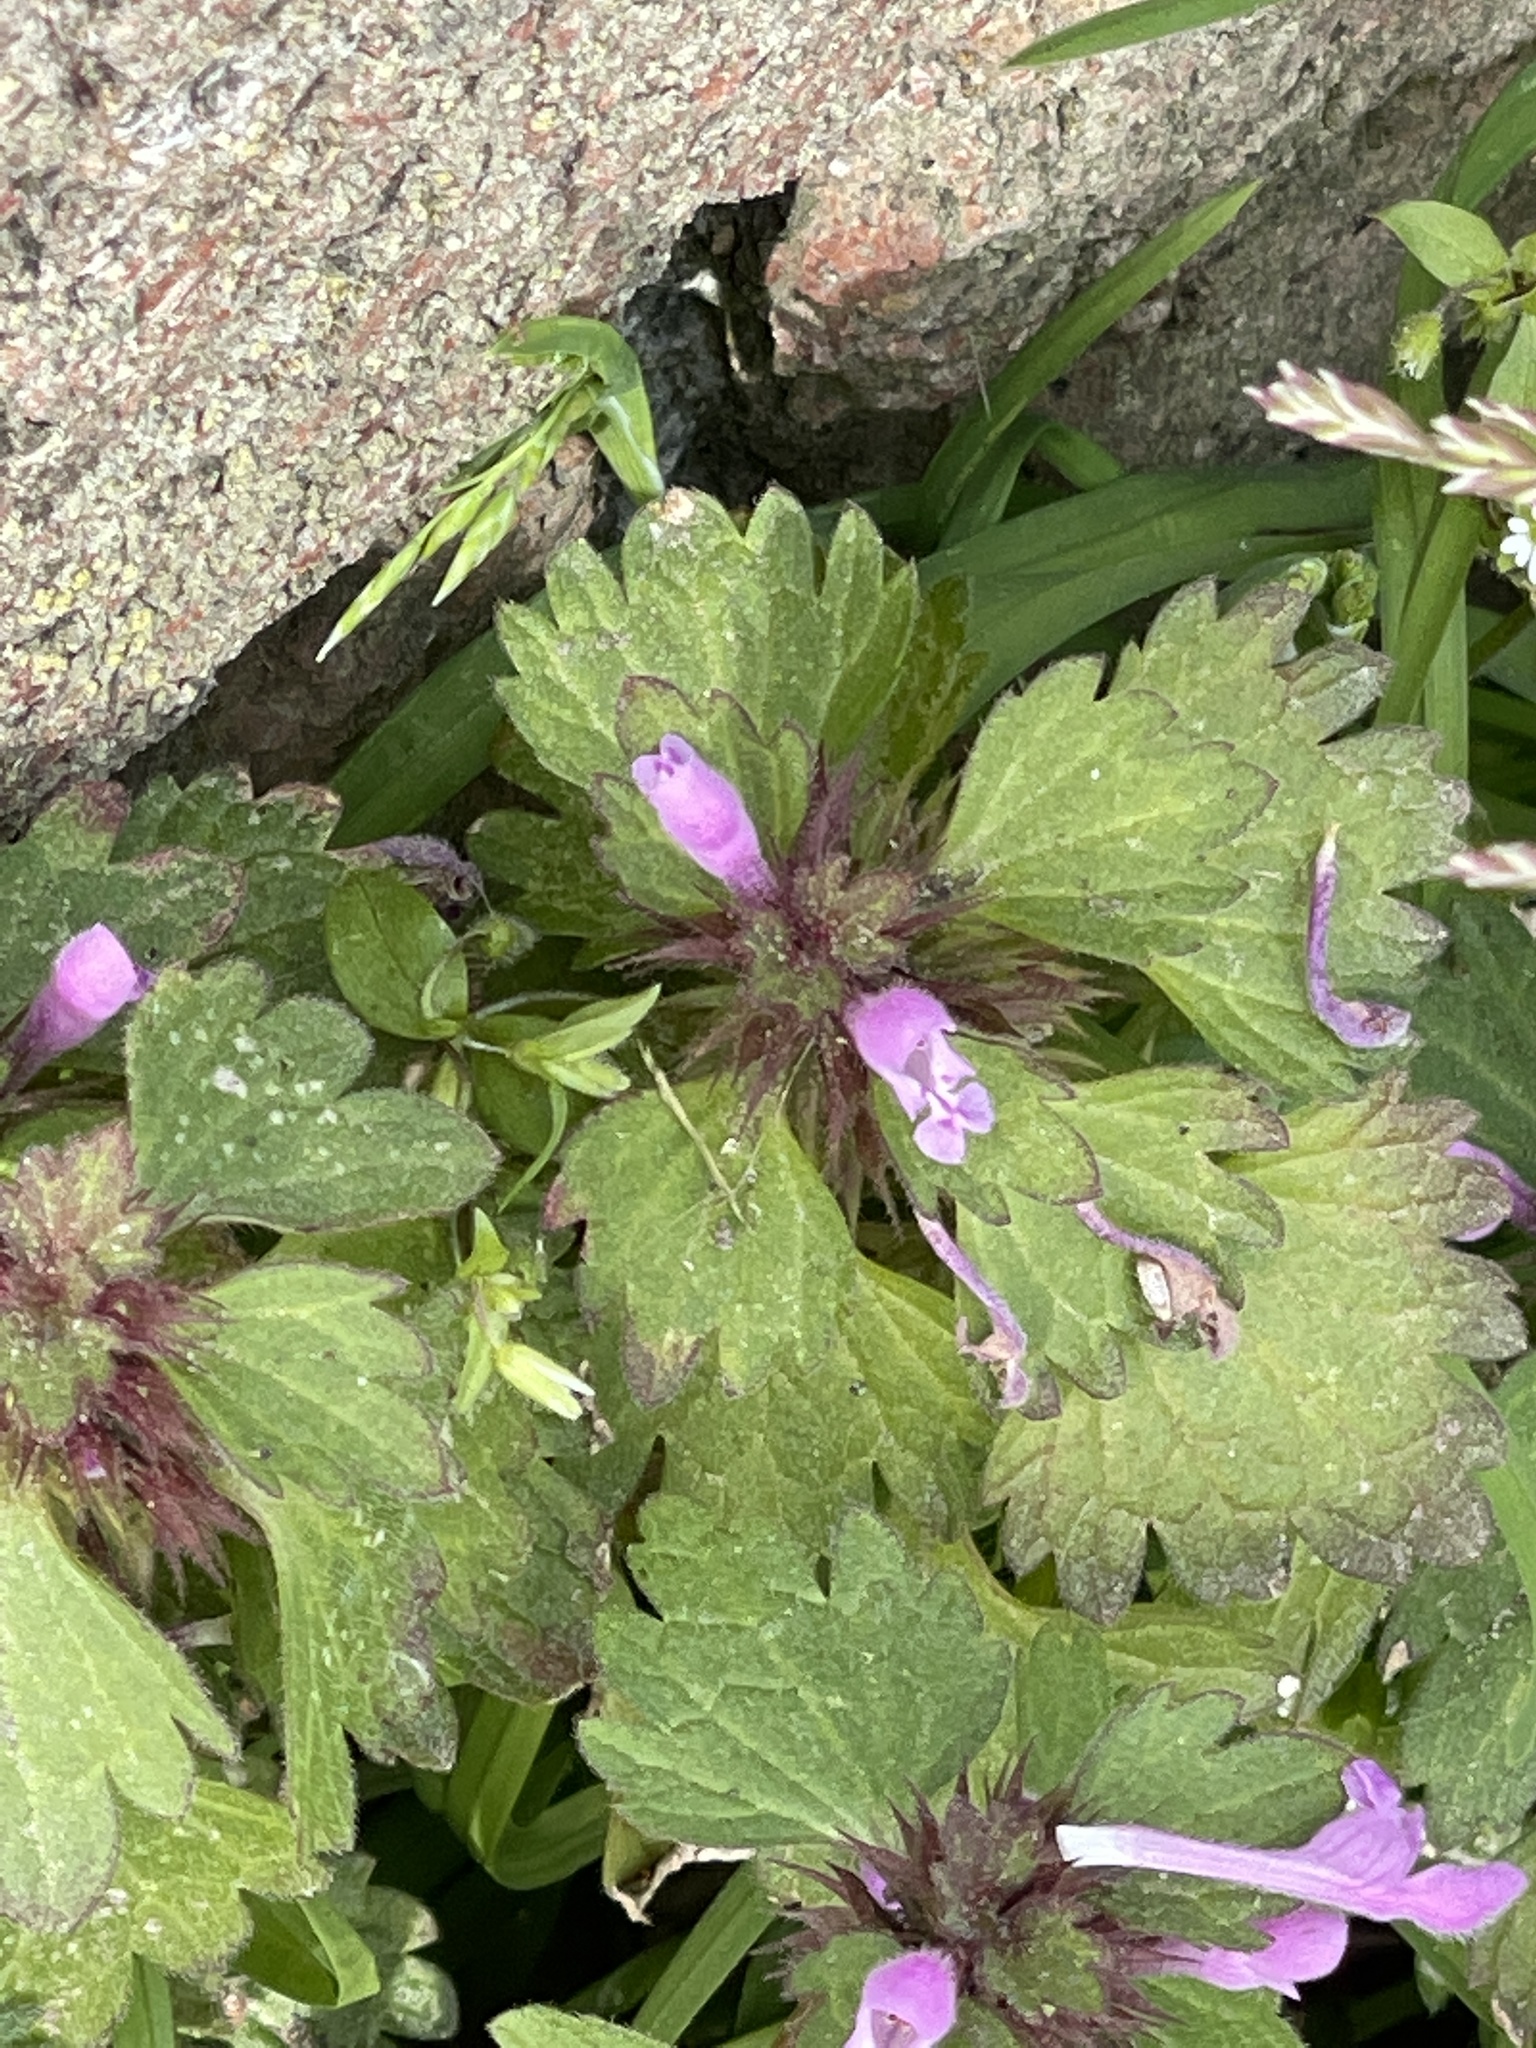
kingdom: Plantae
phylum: Tracheophyta
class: Magnoliopsida
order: Lamiales
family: Lamiaceae
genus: Lamium
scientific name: Lamium hybridum
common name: Cut-leaved dead-nettle
